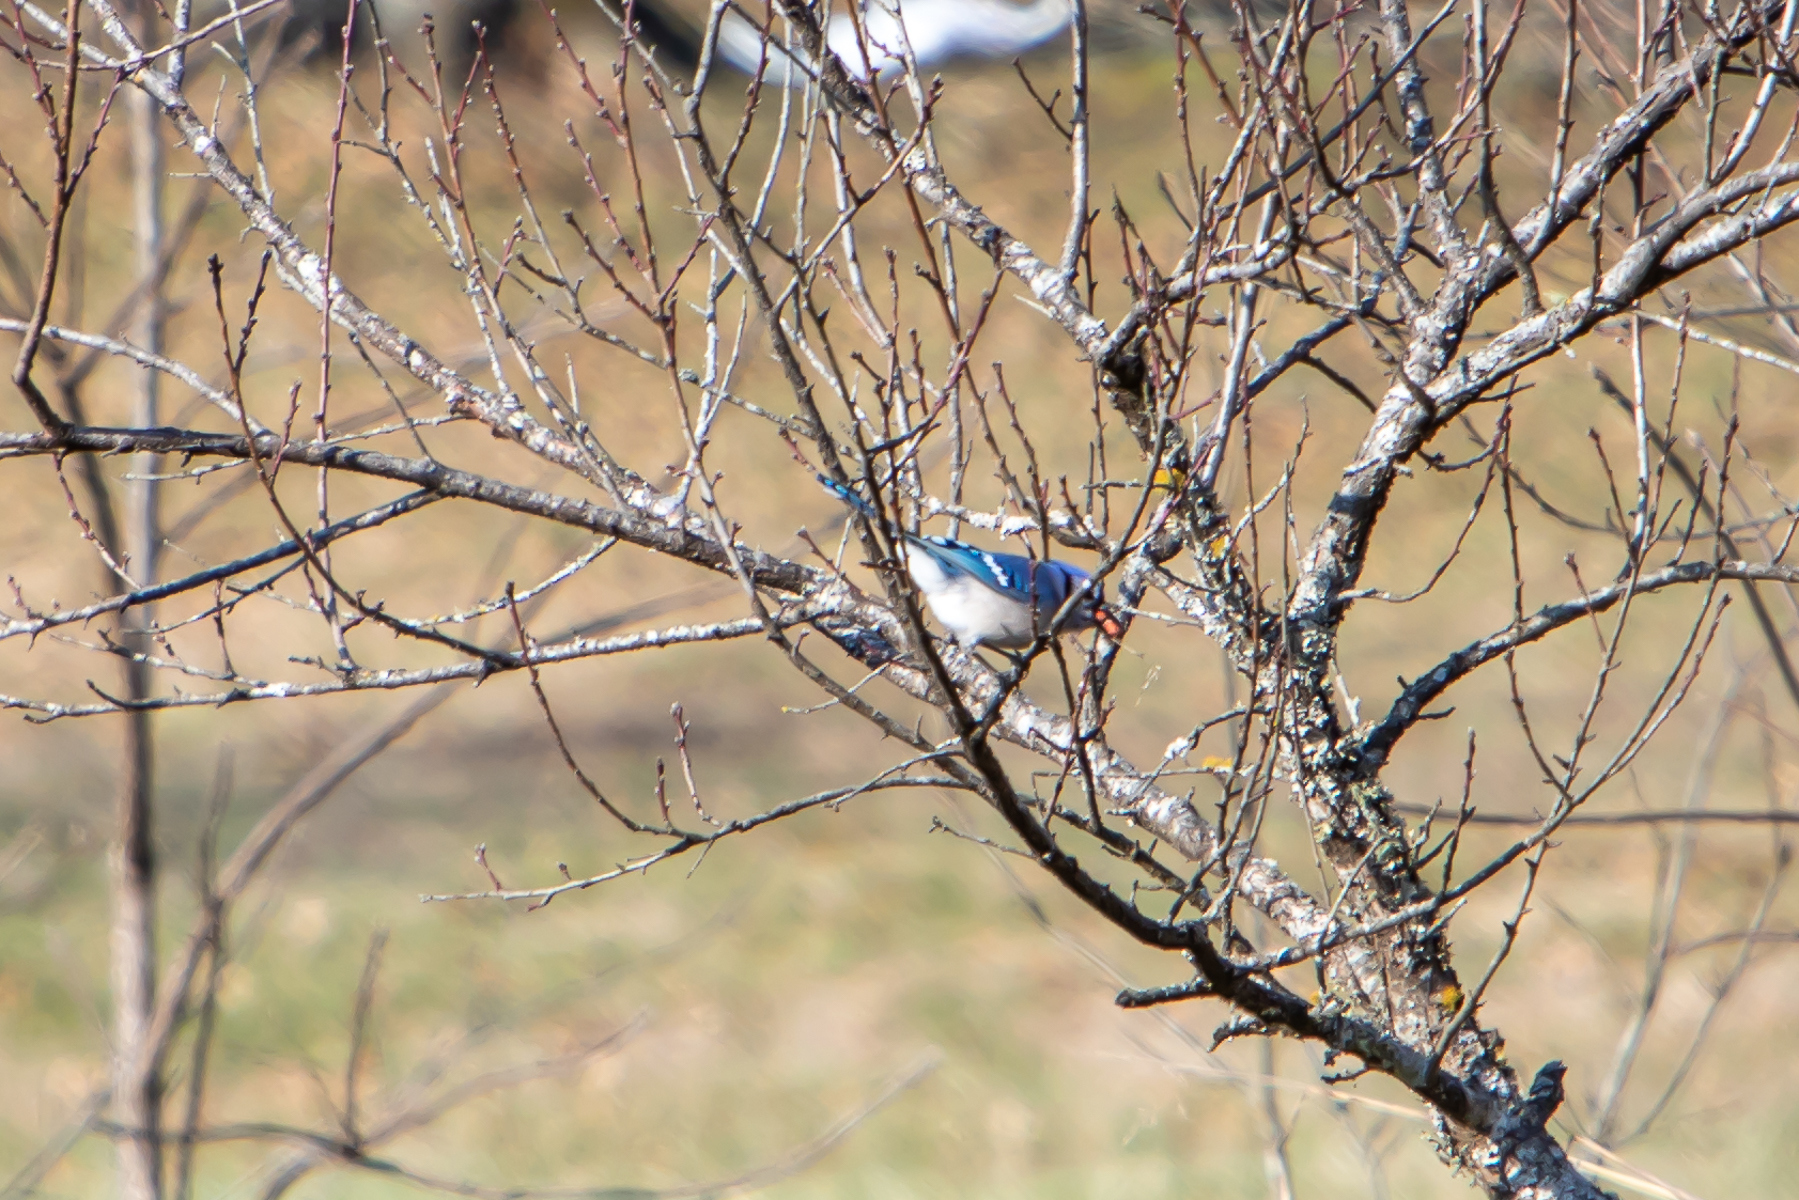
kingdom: Animalia
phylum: Chordata
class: Aves
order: Passeriformes
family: Corvidae
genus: Cyanocitta
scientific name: Cyanocitta cristata
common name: Blue jay
